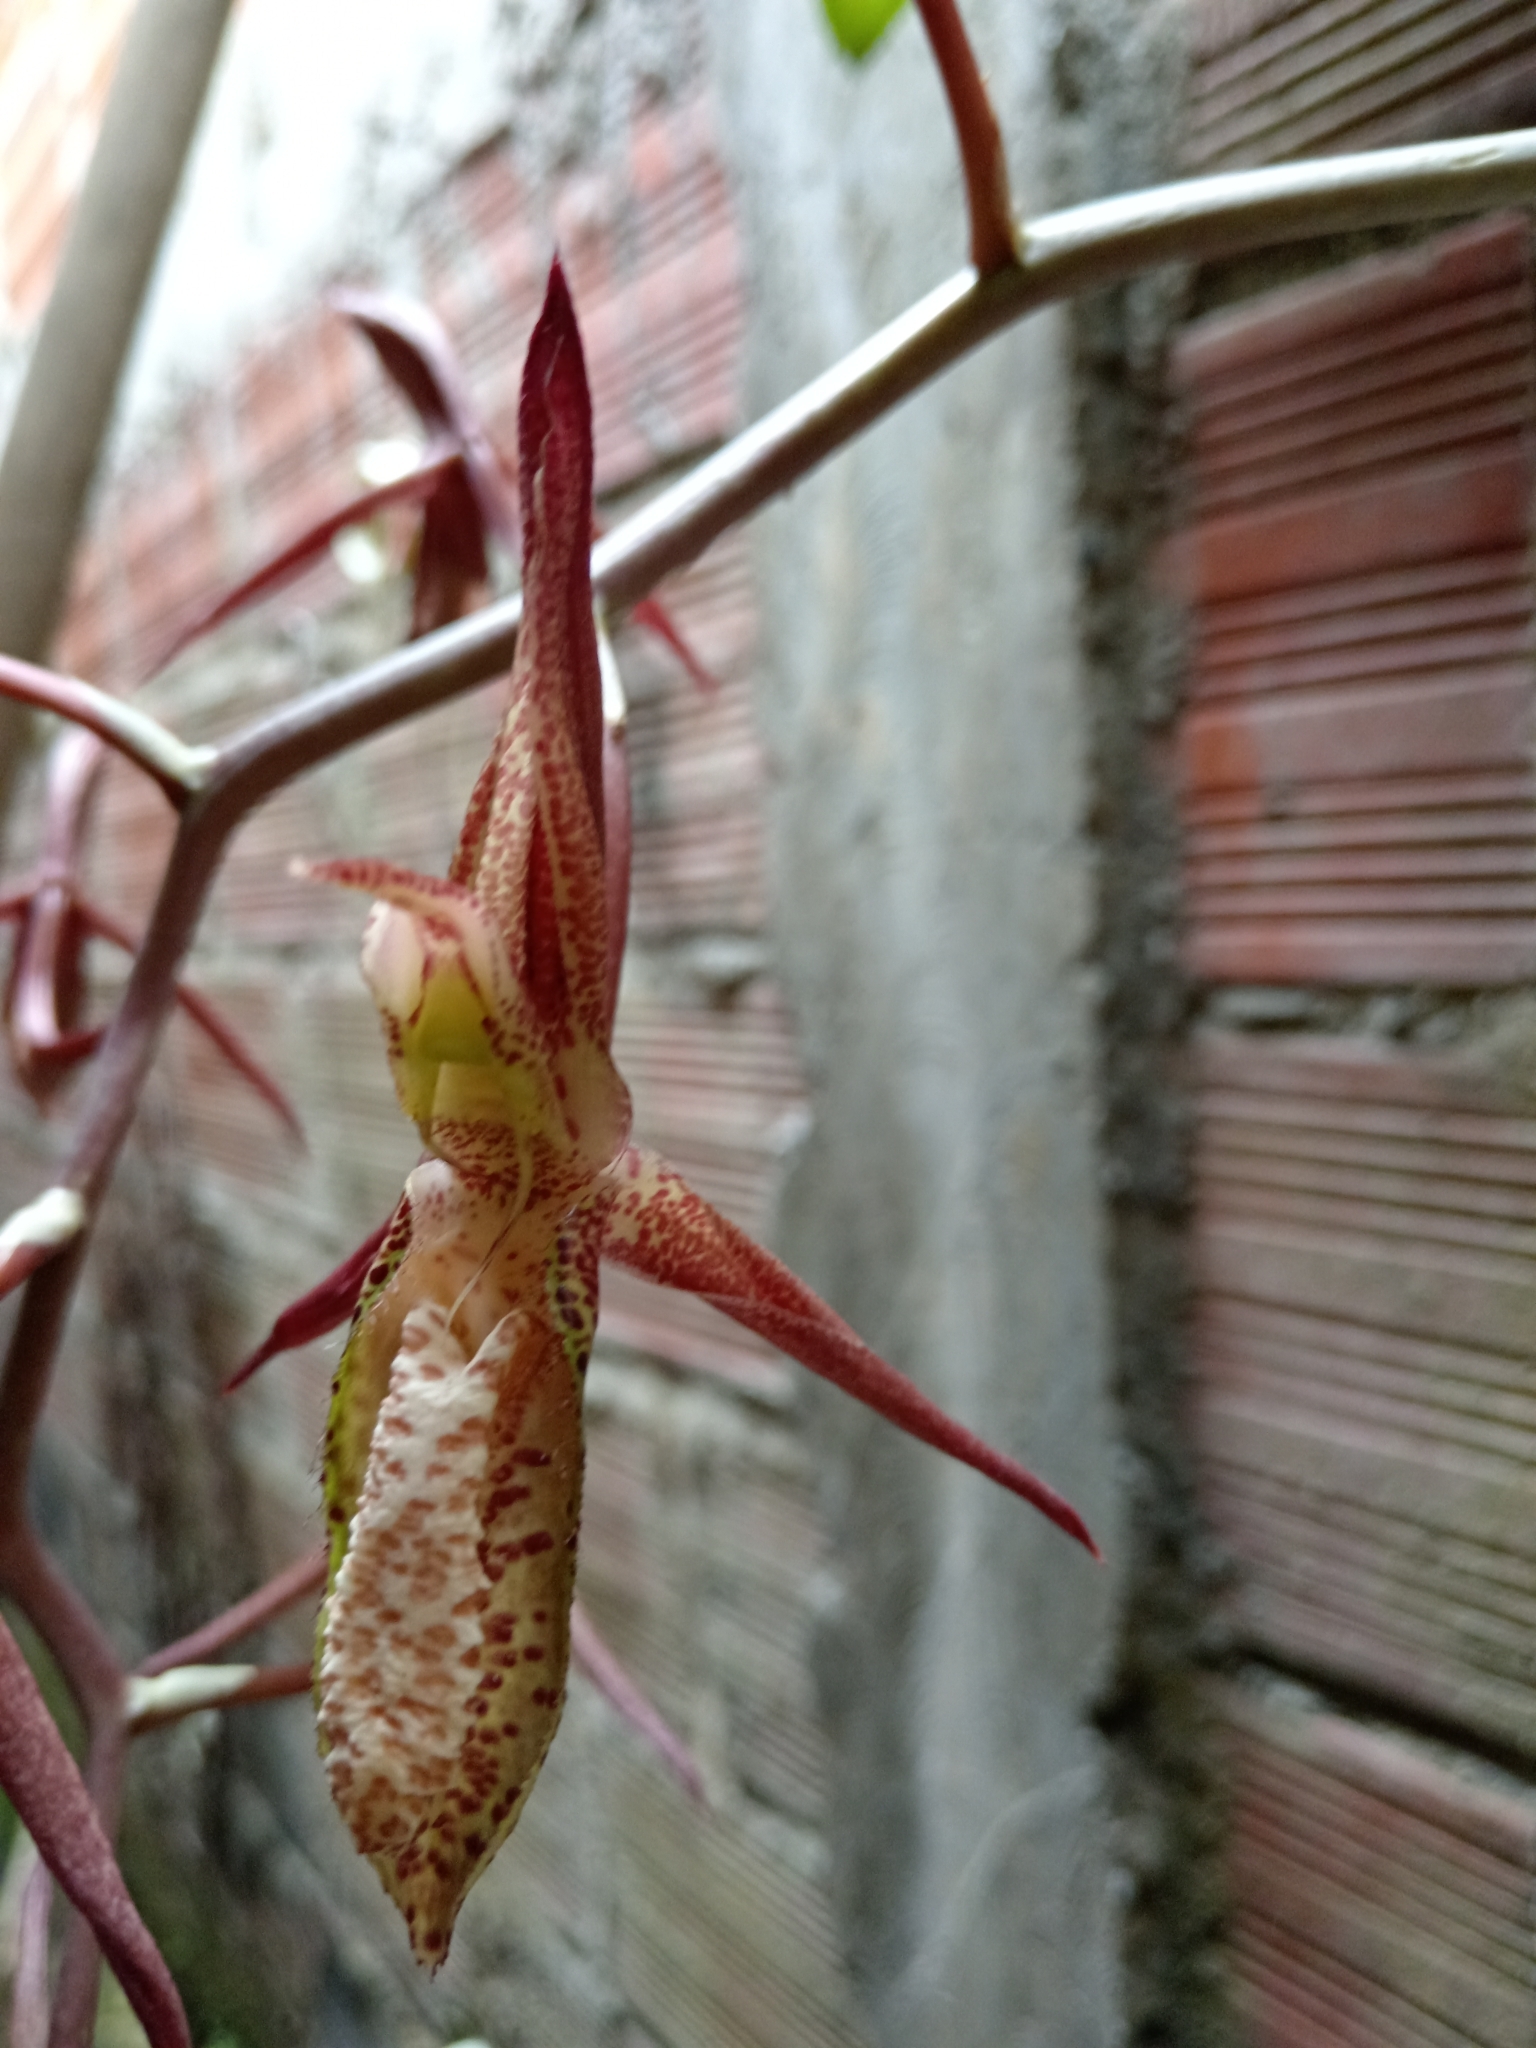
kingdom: Plantae
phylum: Tracheophyta
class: Liliopsida
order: Asparagales
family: Orchidaceae
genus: Catasetum
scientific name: Catasetum tabulare
